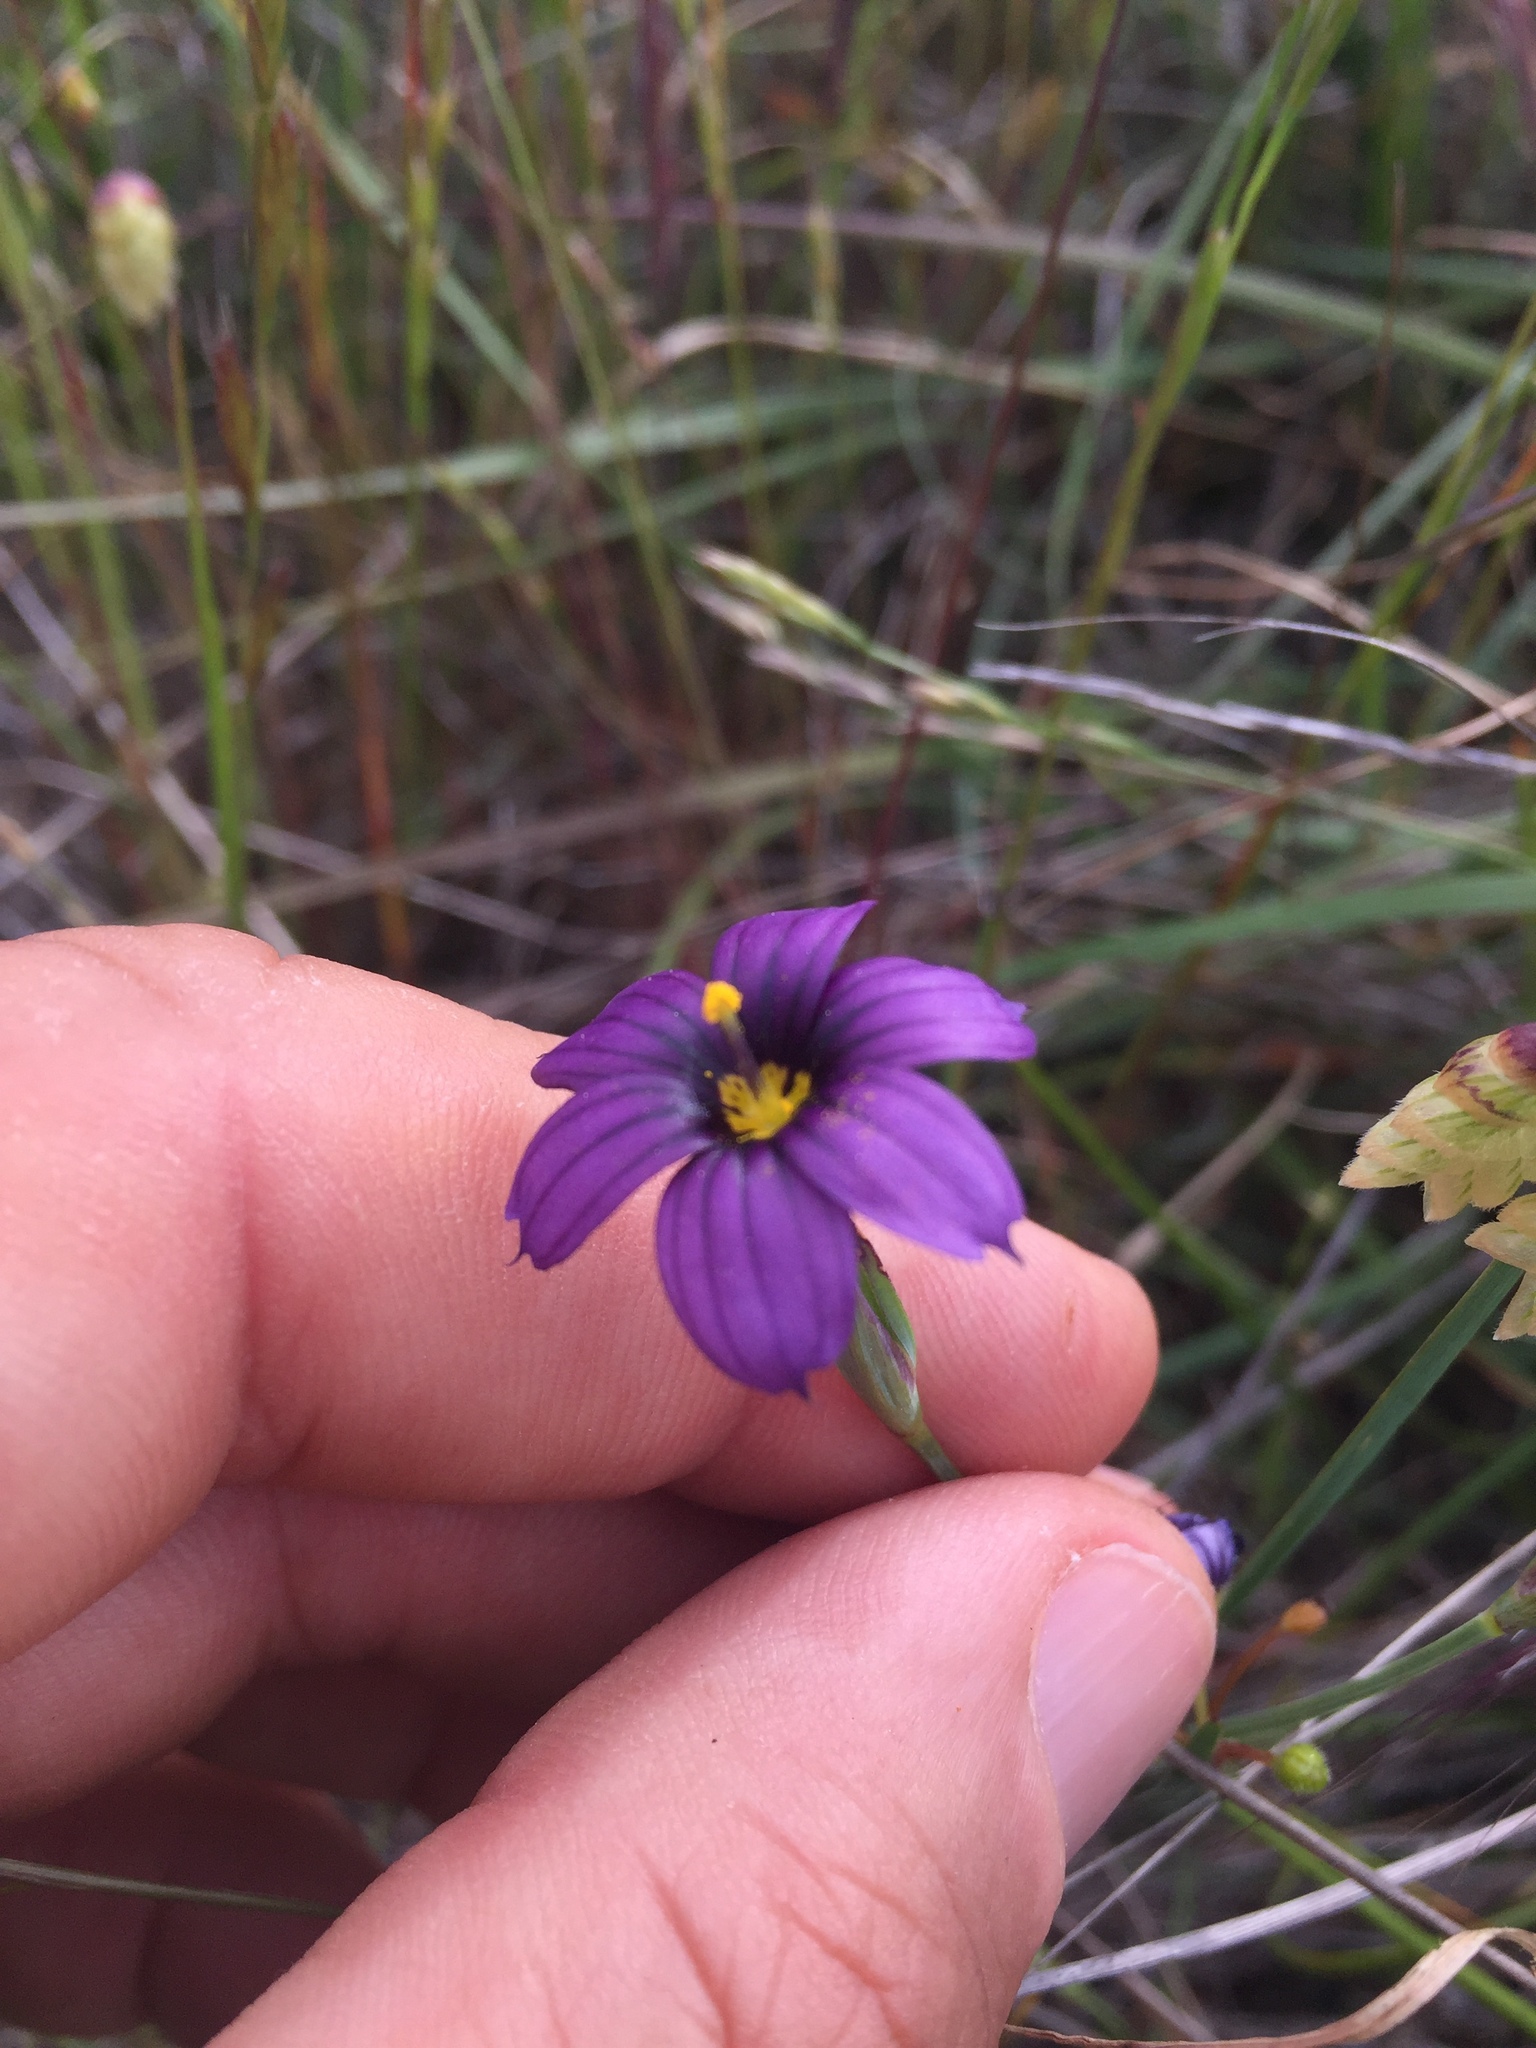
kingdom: Plantae
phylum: Tracheophyta
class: Liliopsida
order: Asparagales
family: Iridaceae
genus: Sisyrinchium
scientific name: Sisyrinchium bellum
